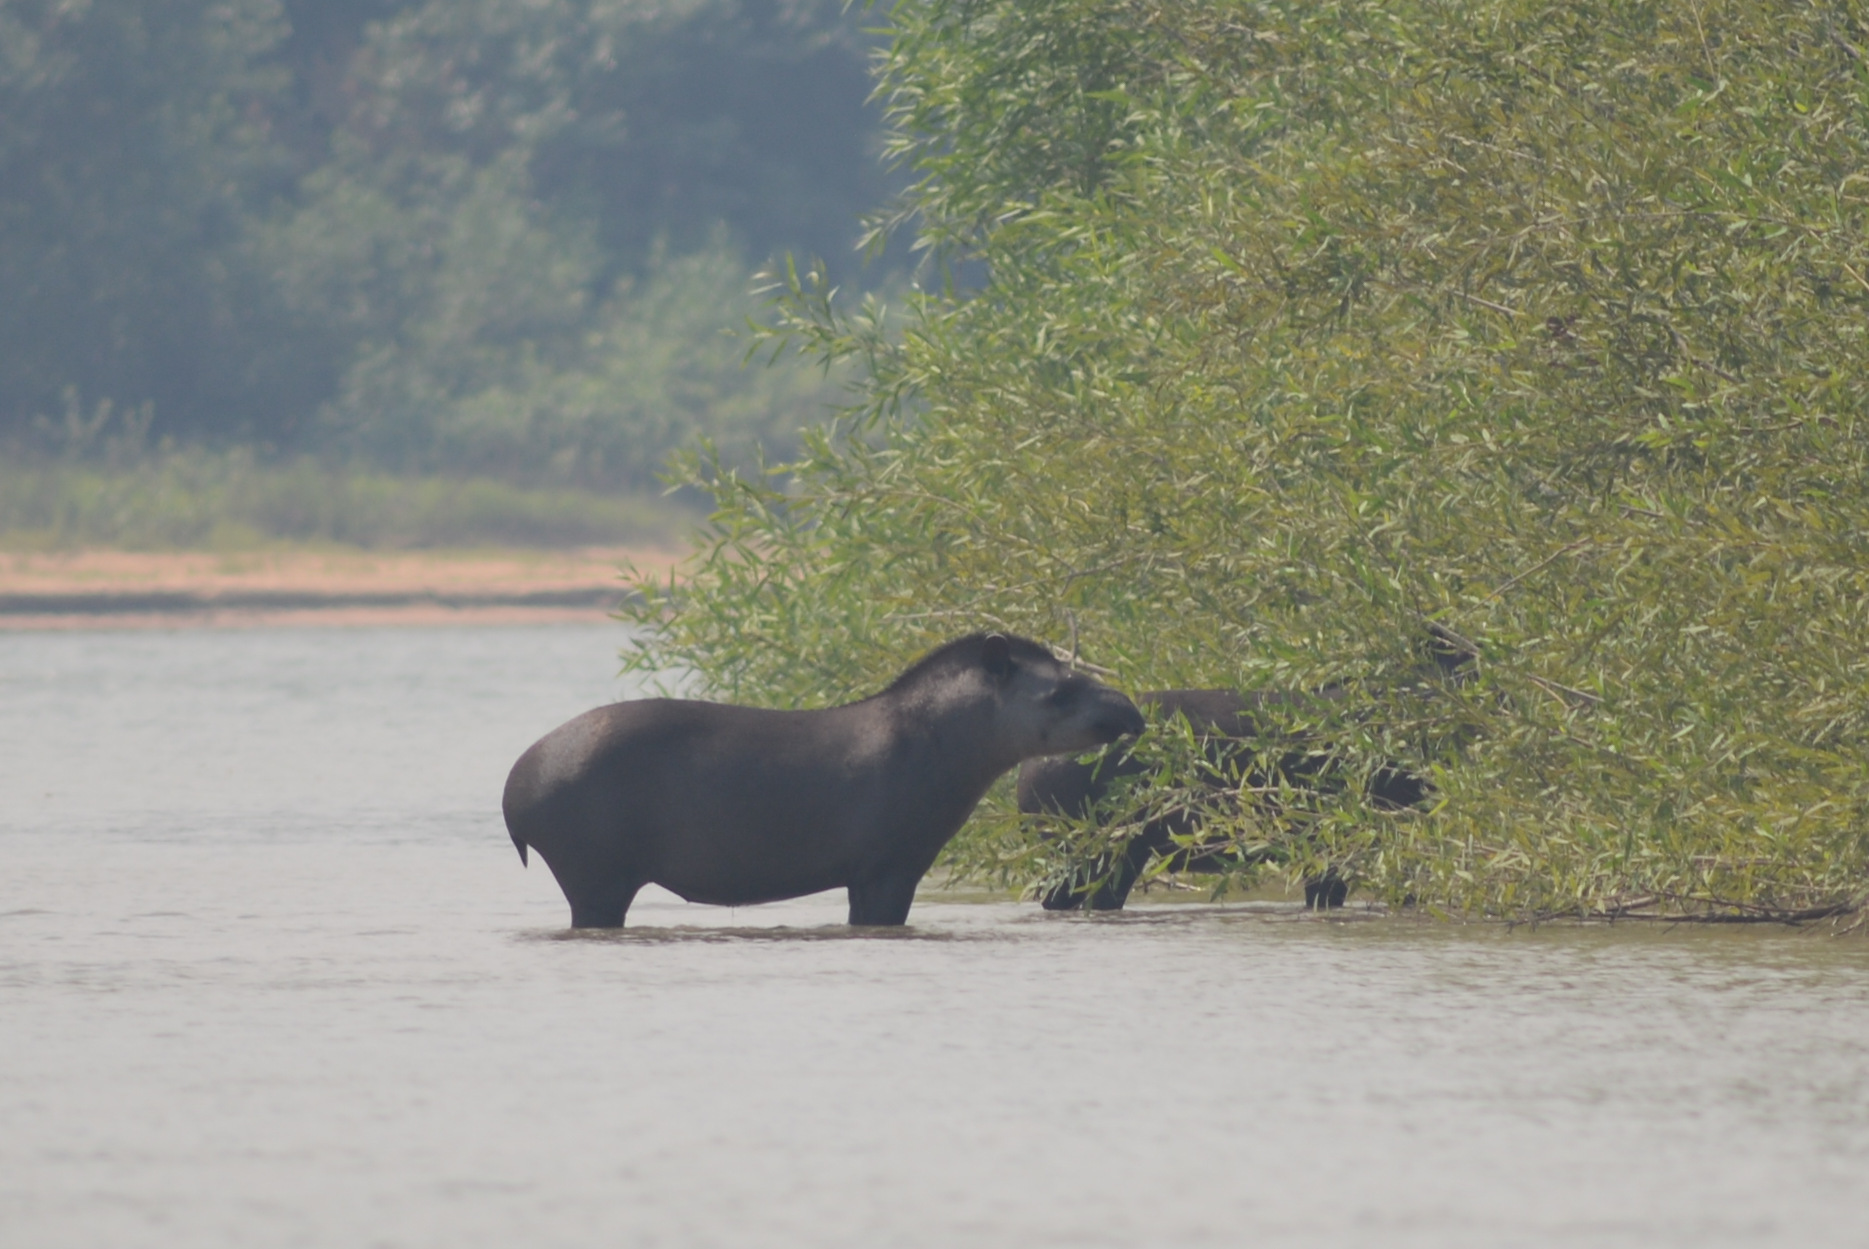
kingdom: Animalia
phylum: Chordata
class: Mammalia
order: Perissodactyla
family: Tapiridae
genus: Tapirus
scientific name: Tapirus terrestris
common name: Brazilian tapir
